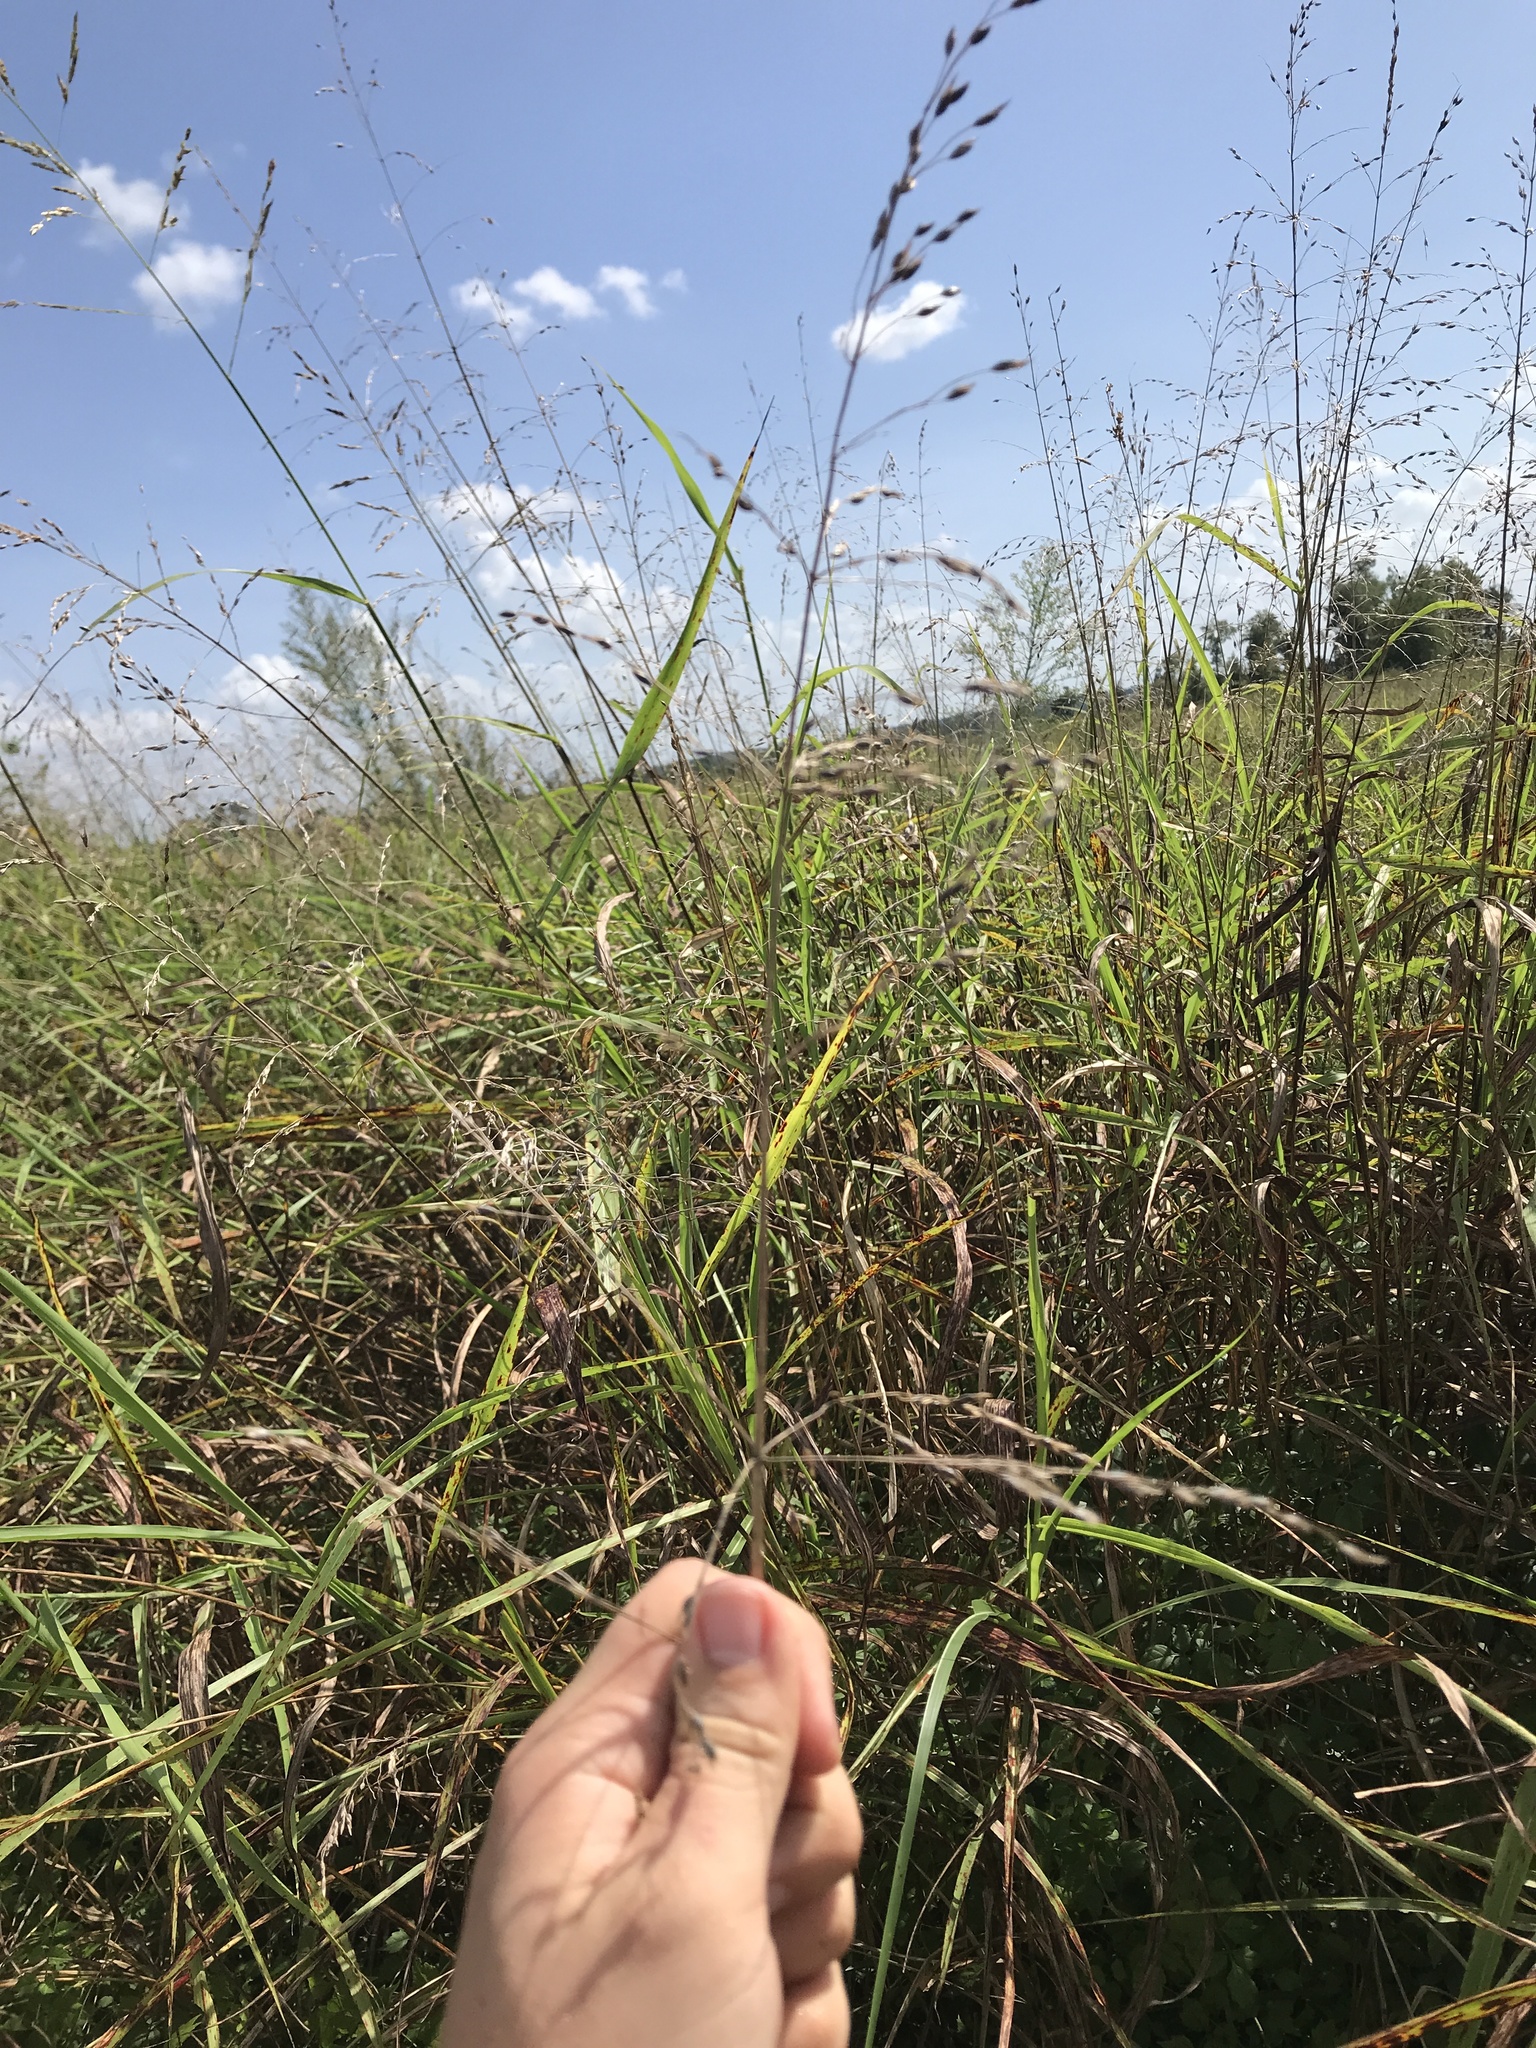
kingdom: Plantae
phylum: Tracheophyta
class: Liliopsida
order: Poales
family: Poaceae
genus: Sorghum
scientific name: Sorghum halepense
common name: Johnson-grass
